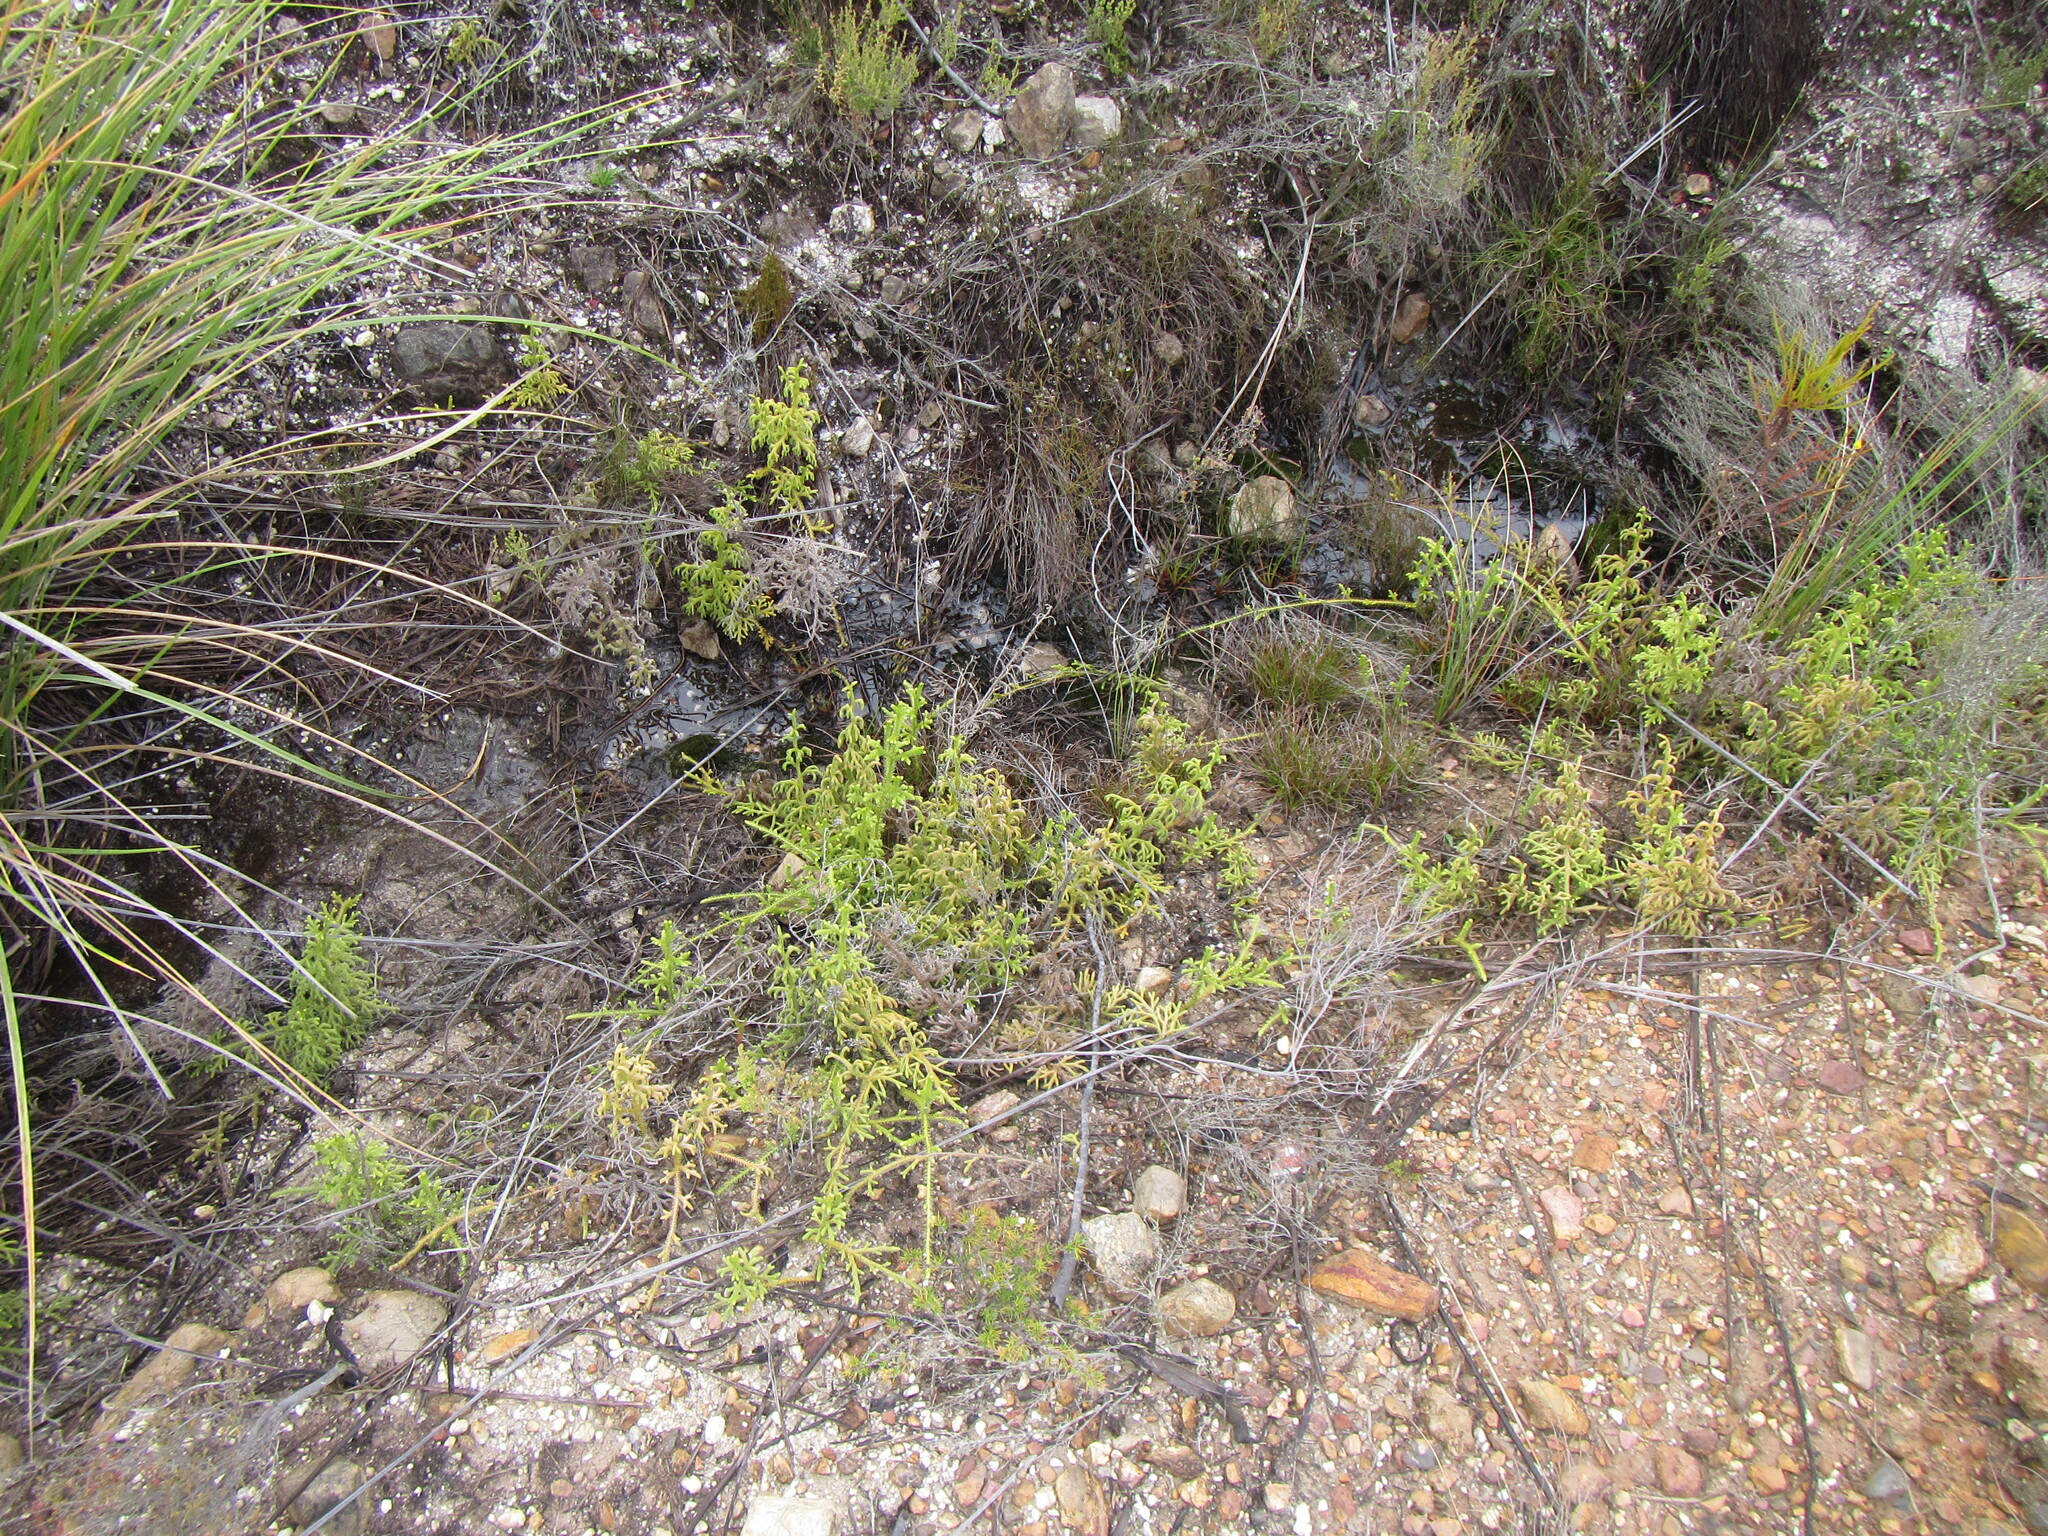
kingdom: Plantae
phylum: Tracheophyta
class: Lycopodiopsida
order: Lycopodiales
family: Lycopodiaceae
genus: Palhinhaea
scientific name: Palhinhaea cernua
